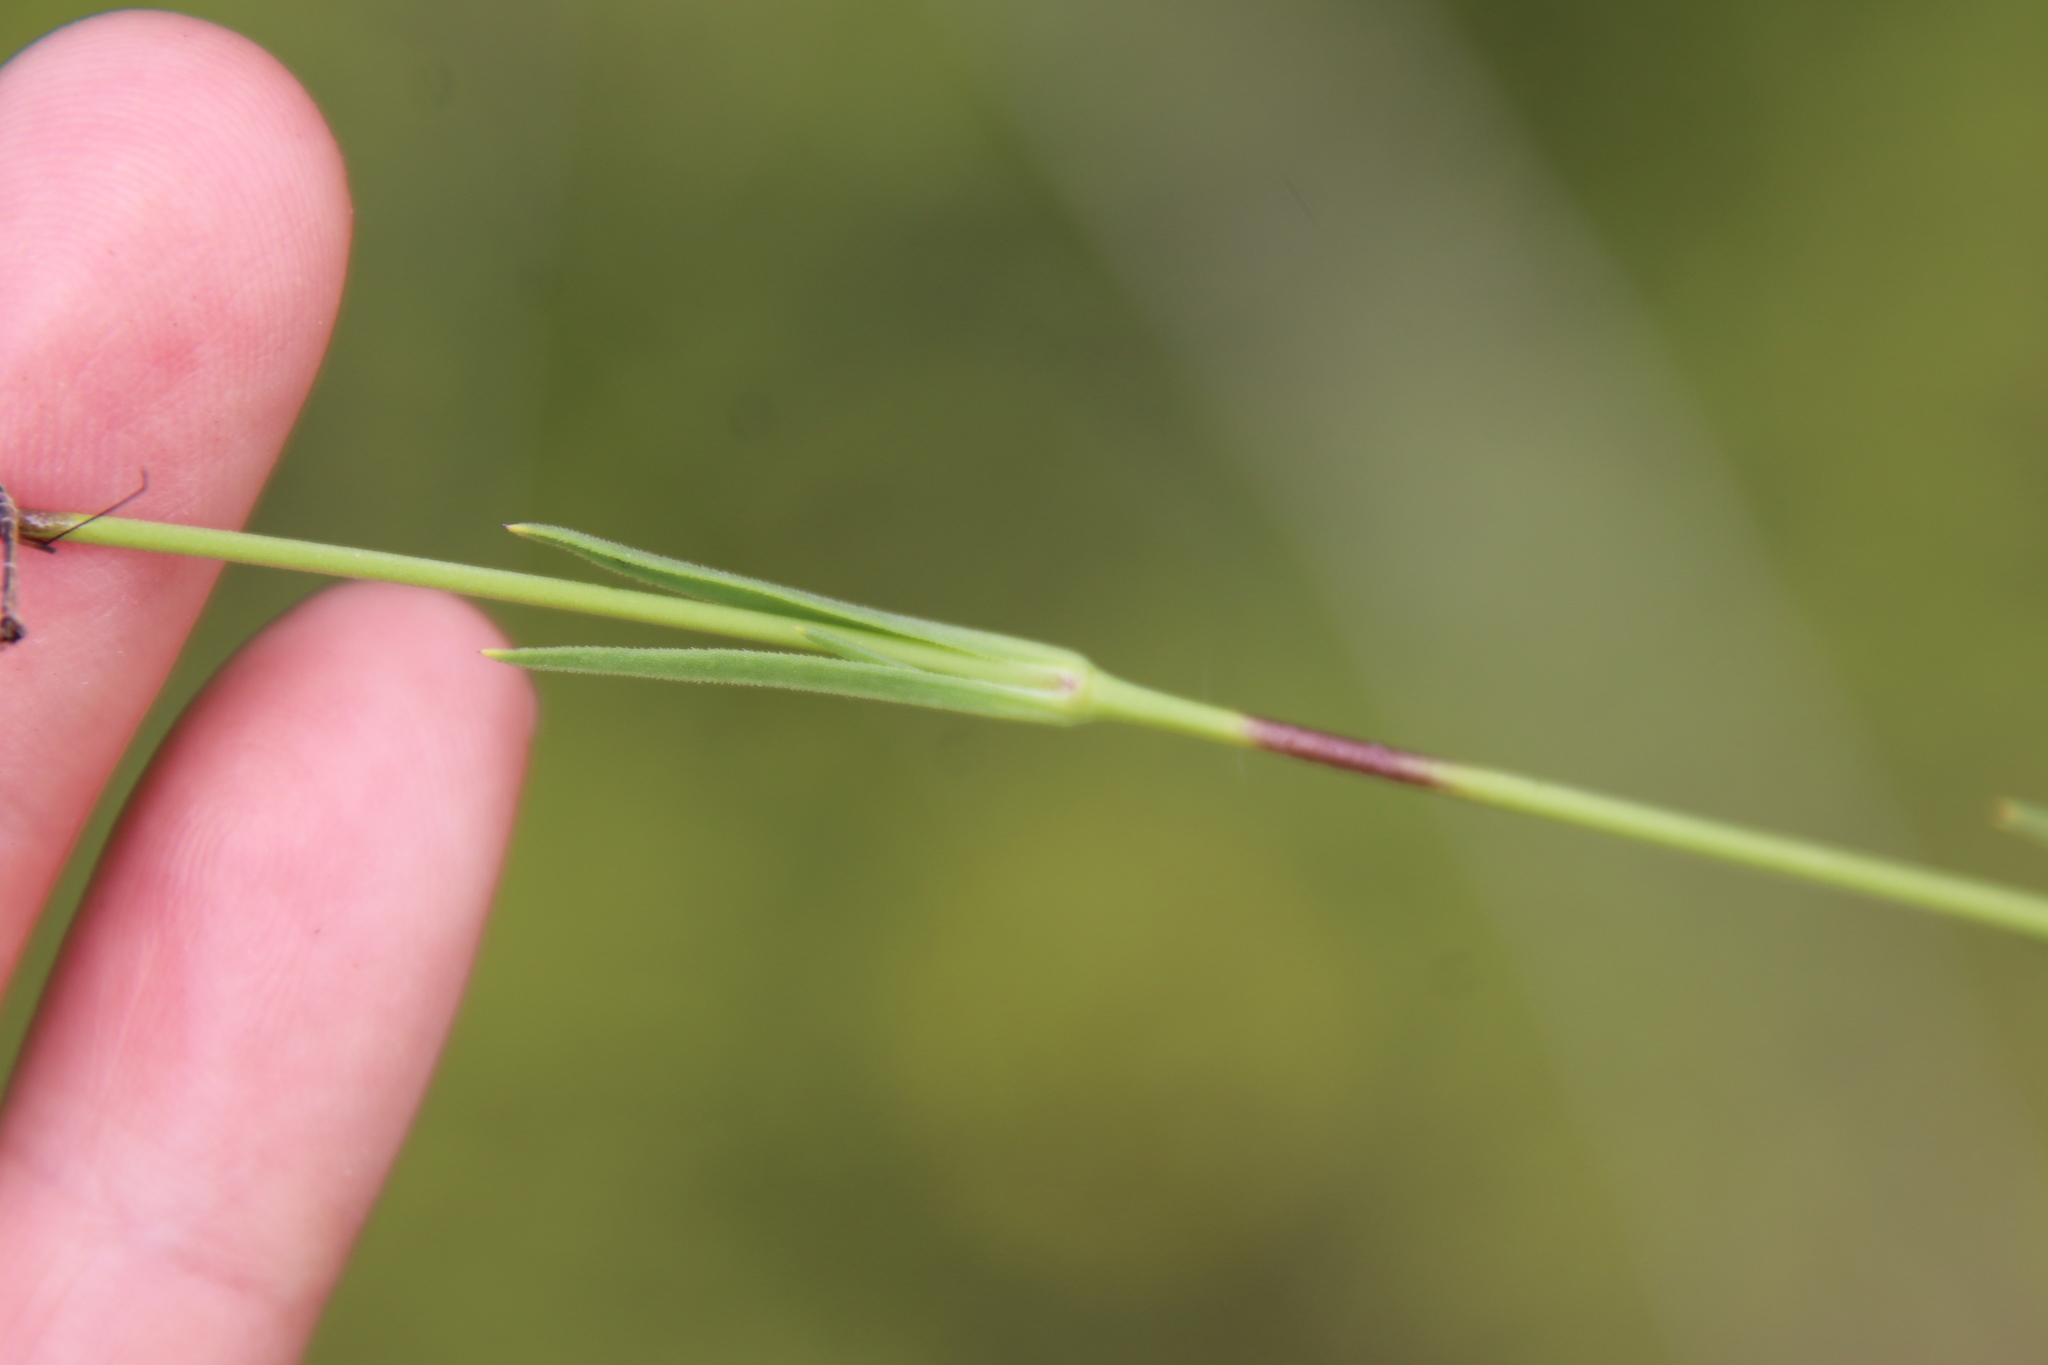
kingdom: Plantae
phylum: Tracheophyta
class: Magnoliopsida
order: Caryophyllales
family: Caryophyllaceae
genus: Silene
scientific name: Silene antirrhina
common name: Sleepy catchfly
